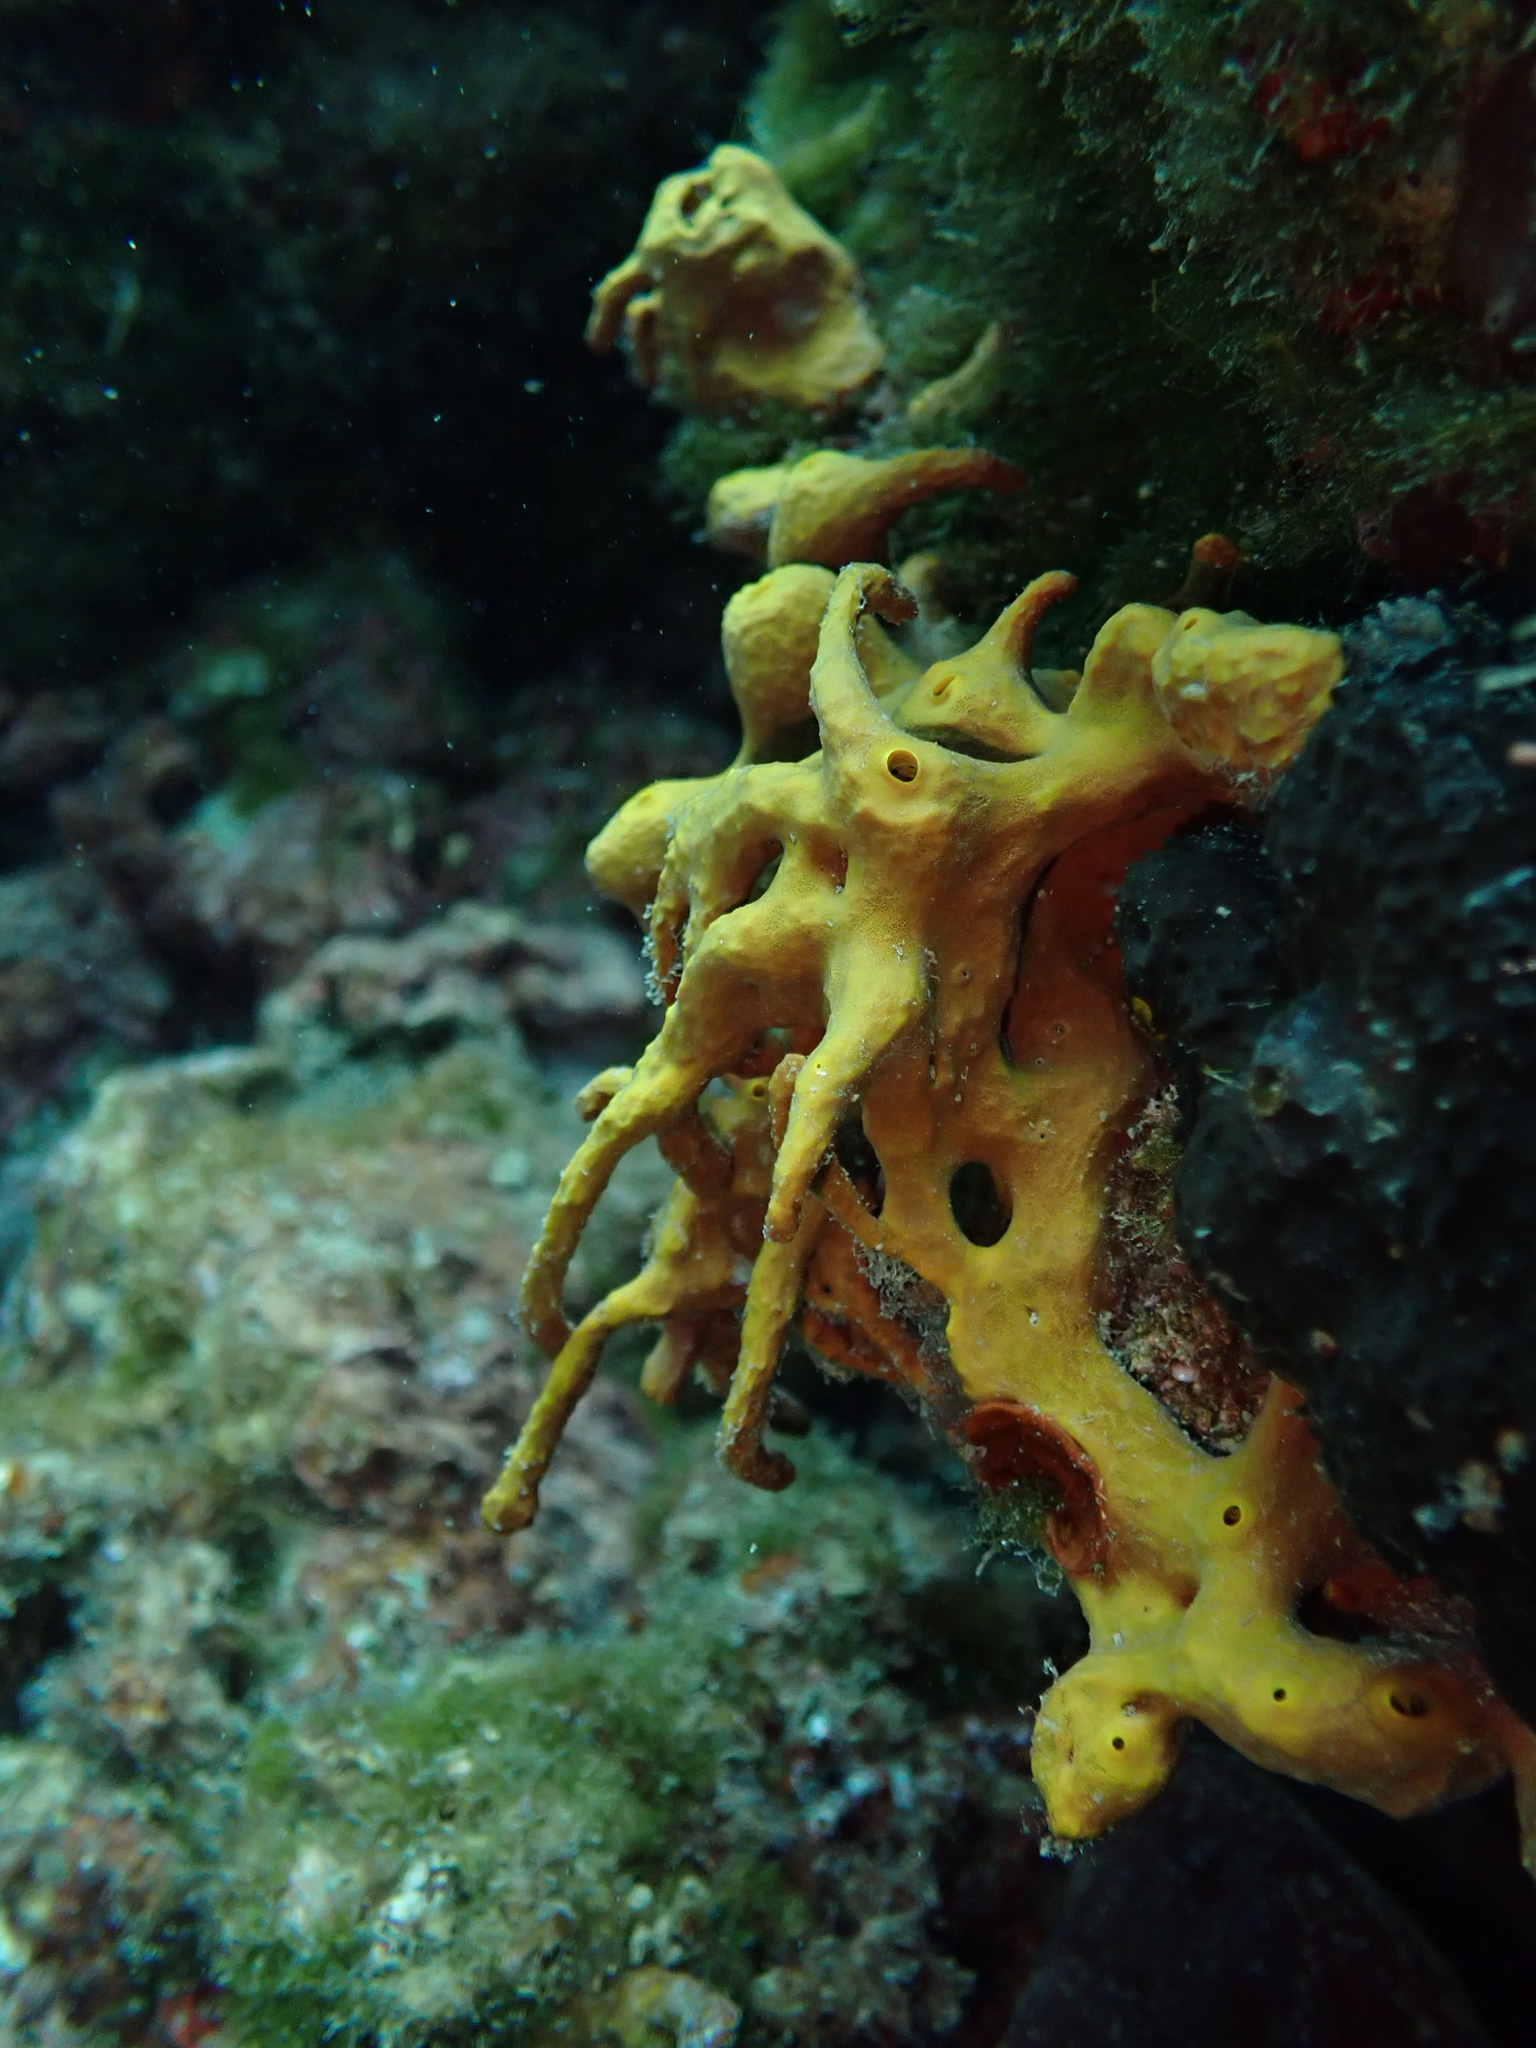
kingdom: Animalia
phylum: Porifera
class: Demospongiae
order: Verongiida
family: Aplysinidae
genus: Aplysina
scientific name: Aplysina aerophoba
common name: Aureate sponge
